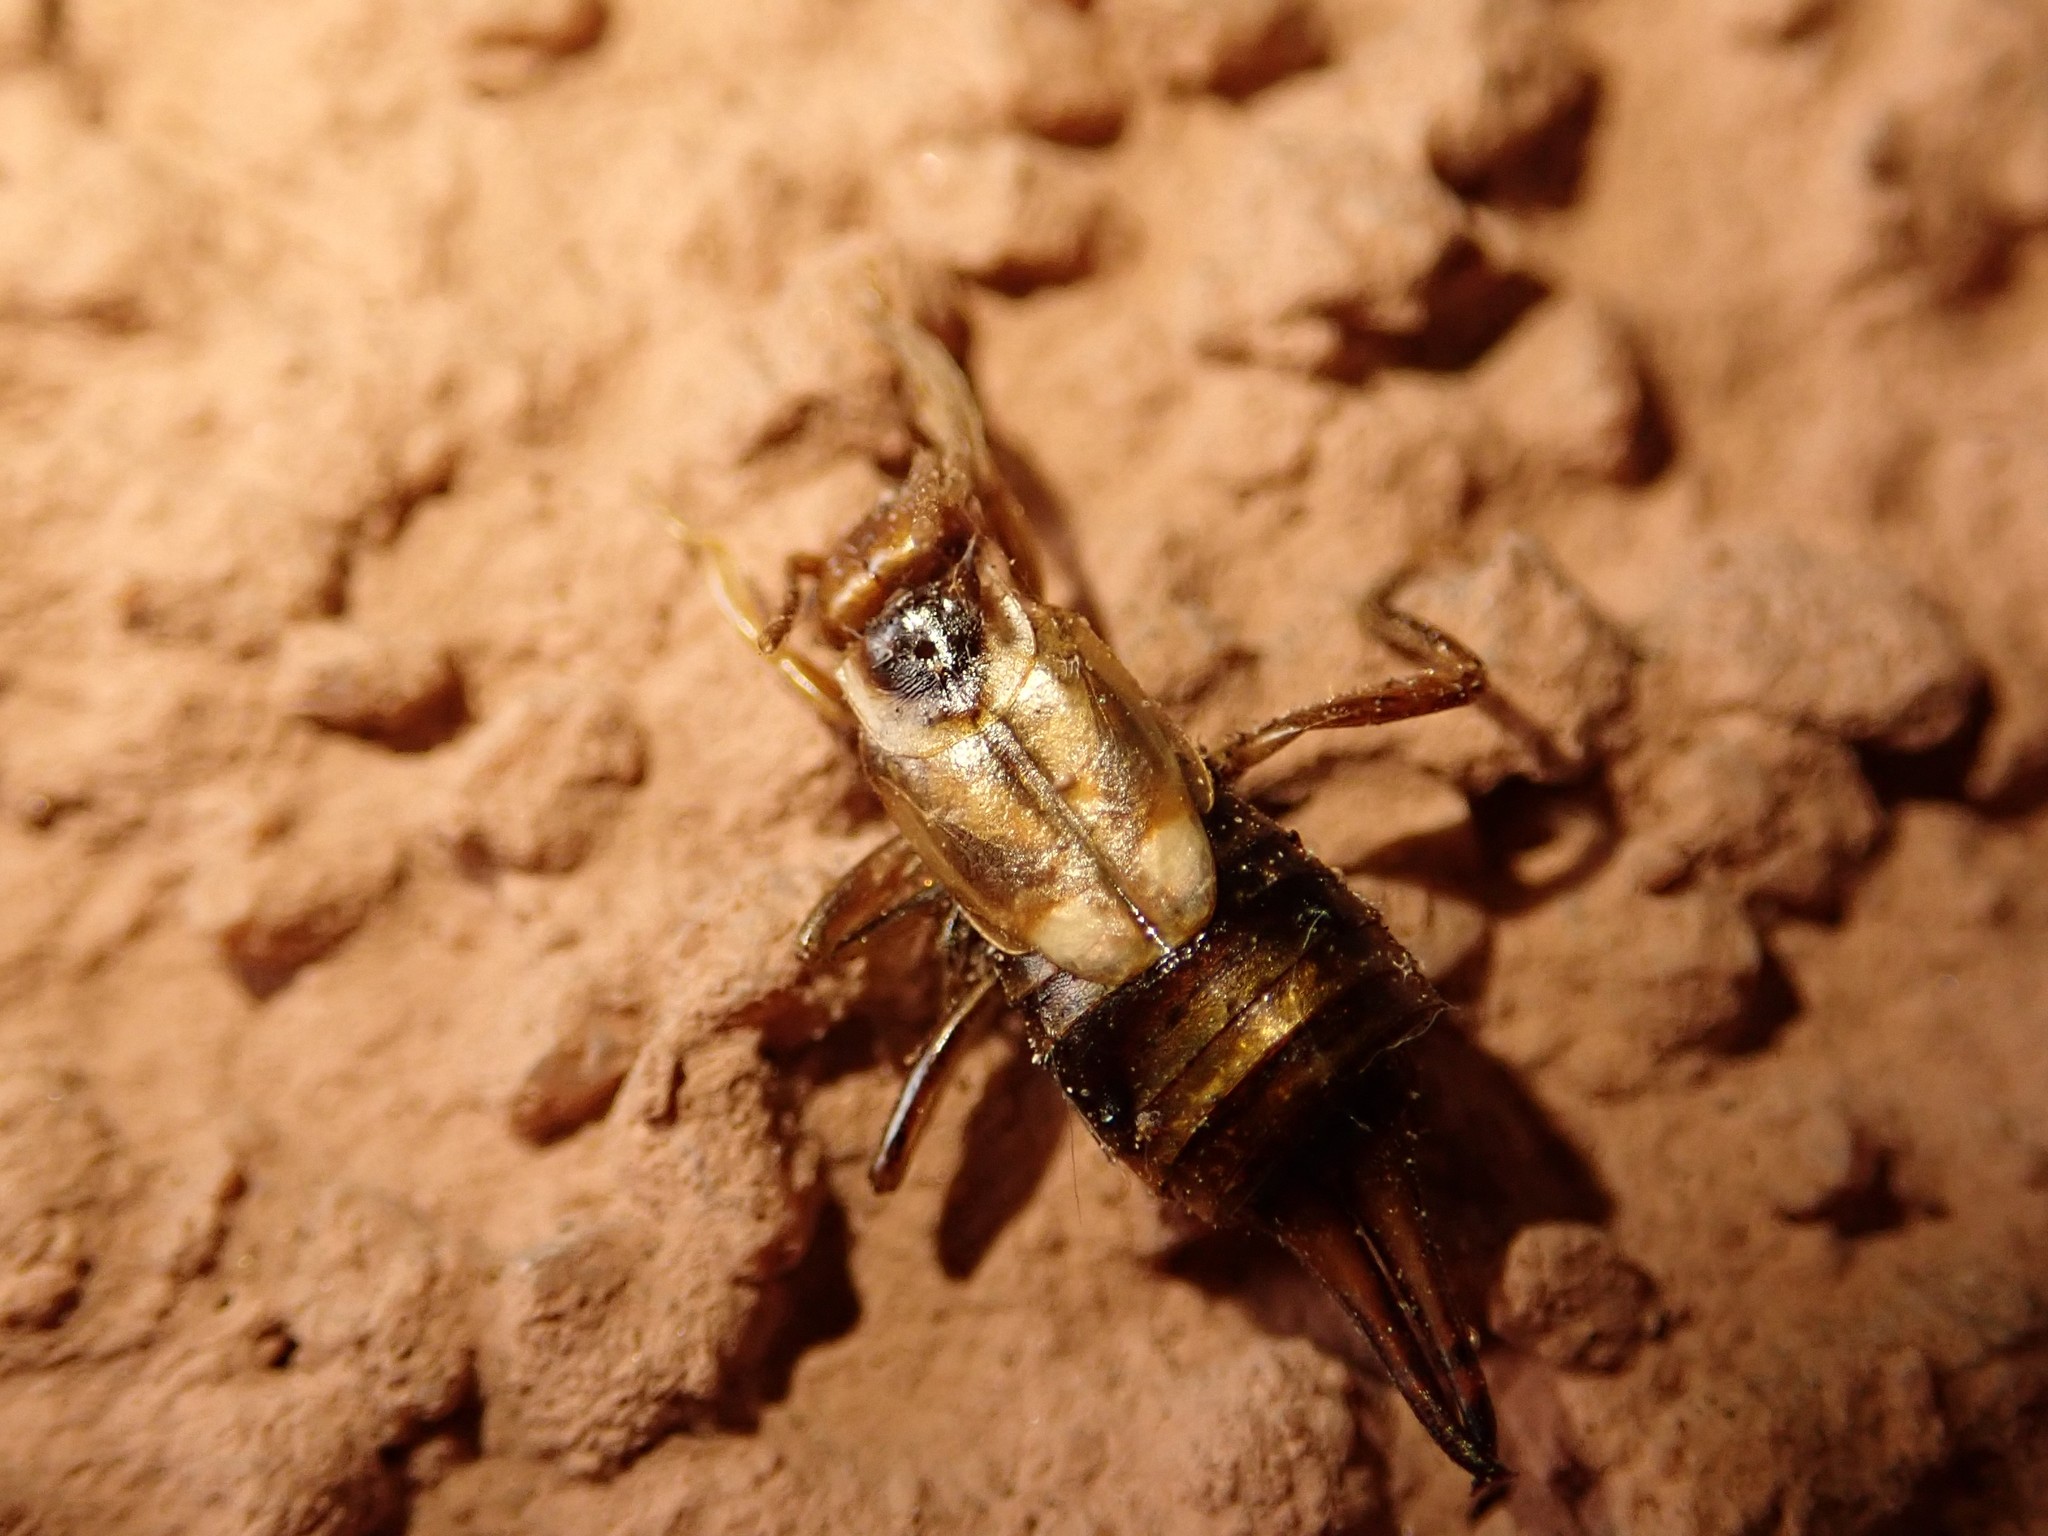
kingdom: Animalia
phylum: Arthropoda
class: Insecta
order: Dermaptera
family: Forficulidae
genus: Forficula
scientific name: Forficula
